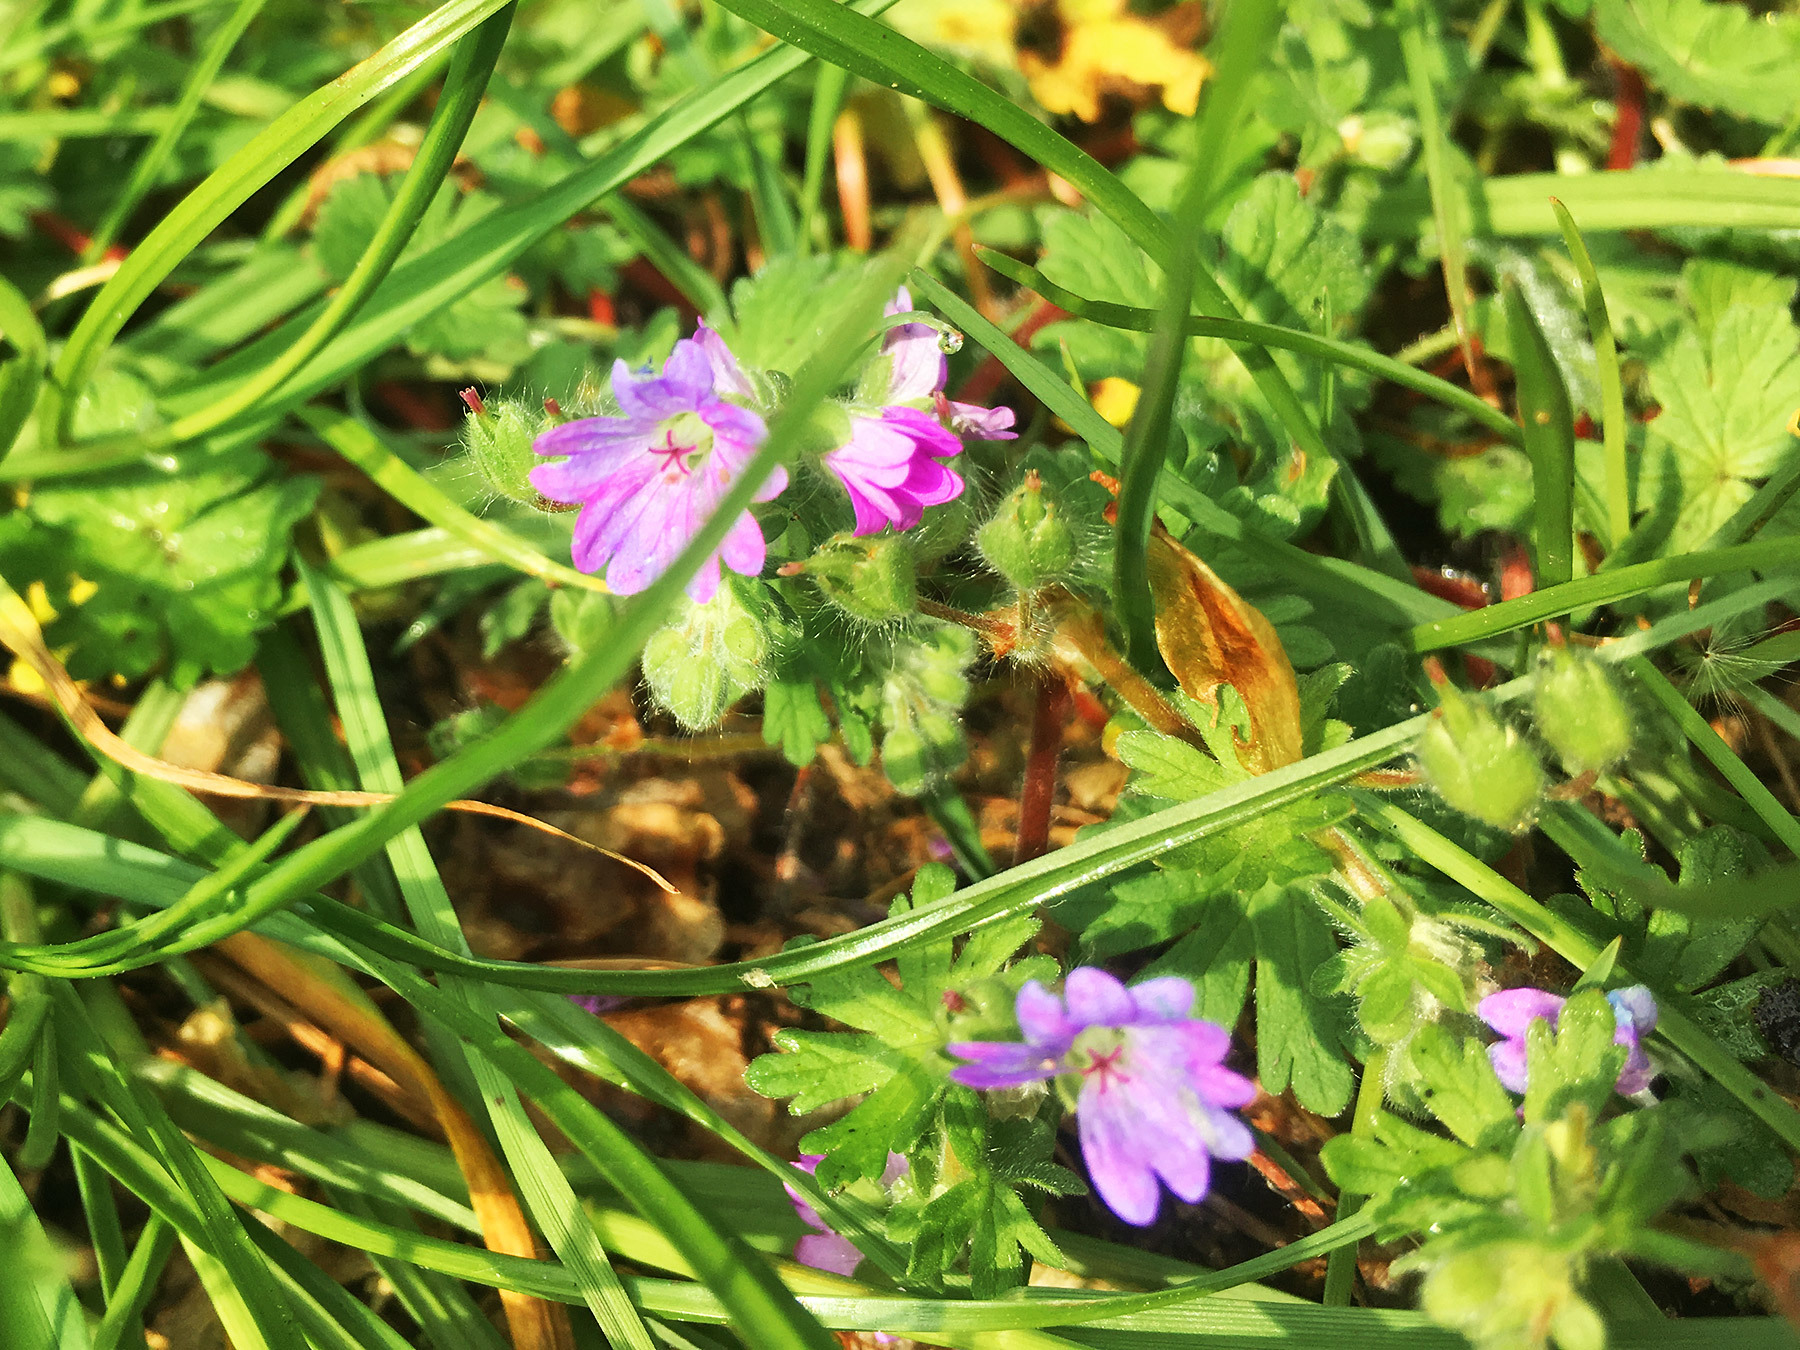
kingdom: Plantae
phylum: Tracheophyta
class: Magnoliopsida
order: Geraniales
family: Geraniaceae
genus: Geranium
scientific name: Geranium molle
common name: Dove's-foot crane's-bill
